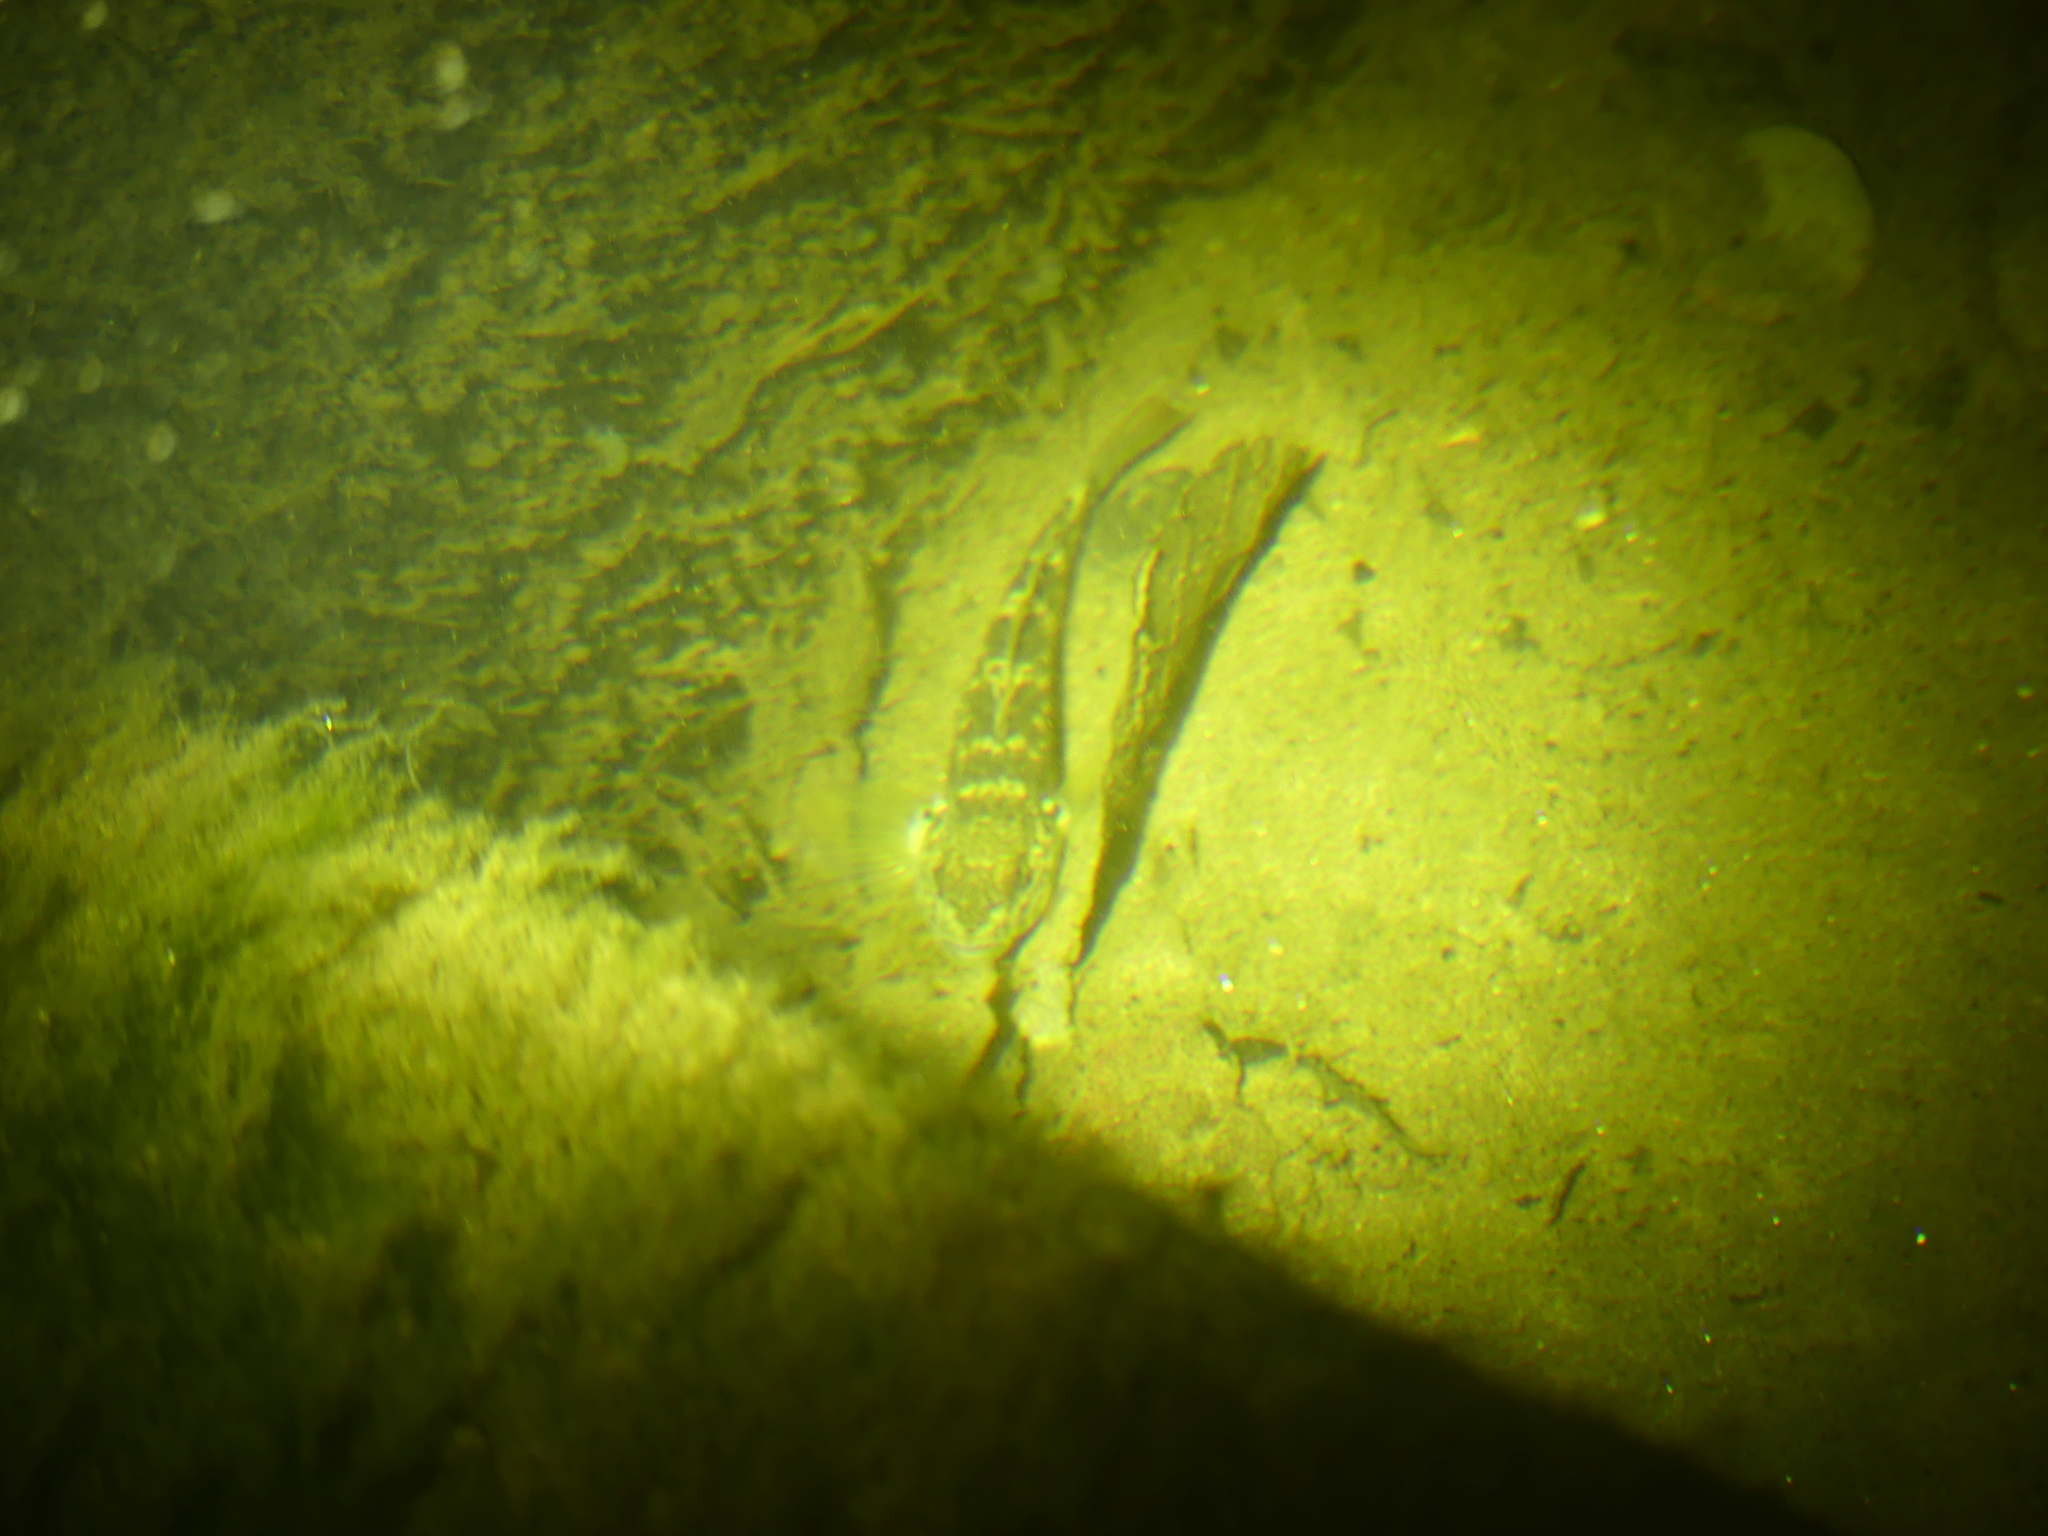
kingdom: Animalia
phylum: Chordata
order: Perciformes
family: Gobiidae
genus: Neogobius
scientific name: Neogobius melanostomus
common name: Round goby
